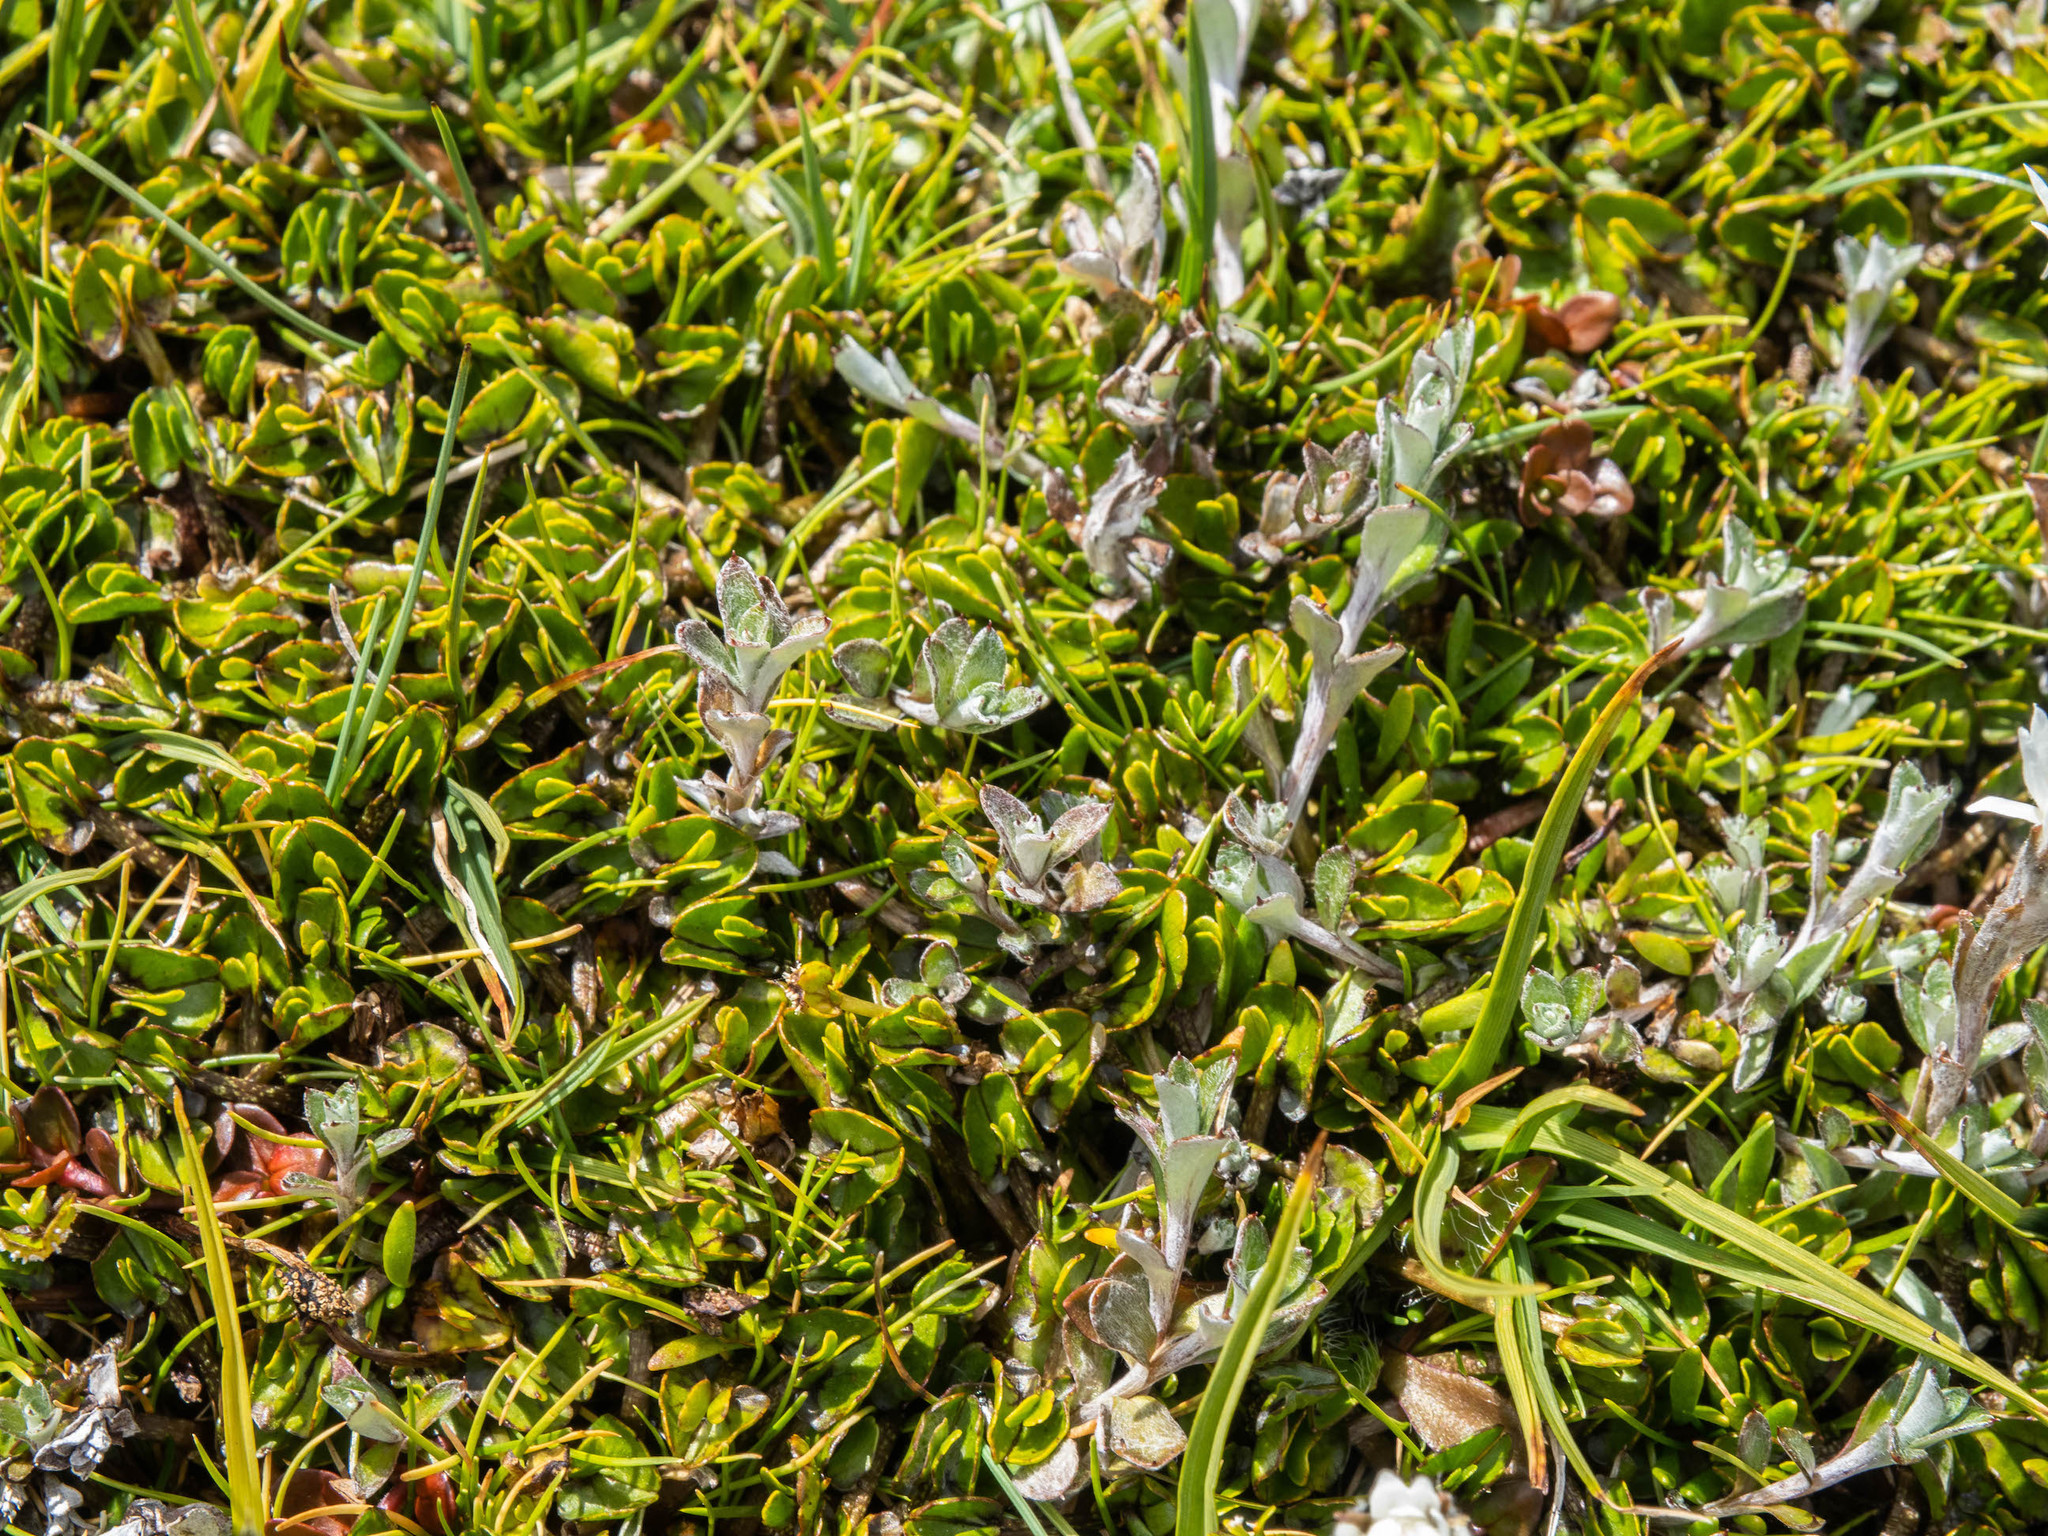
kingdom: Plantae
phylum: Tracheophyta
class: Magnoliopsida
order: Asterales
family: Asteraceae
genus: Anaphalioides
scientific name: Anaphalioides bellidioides
